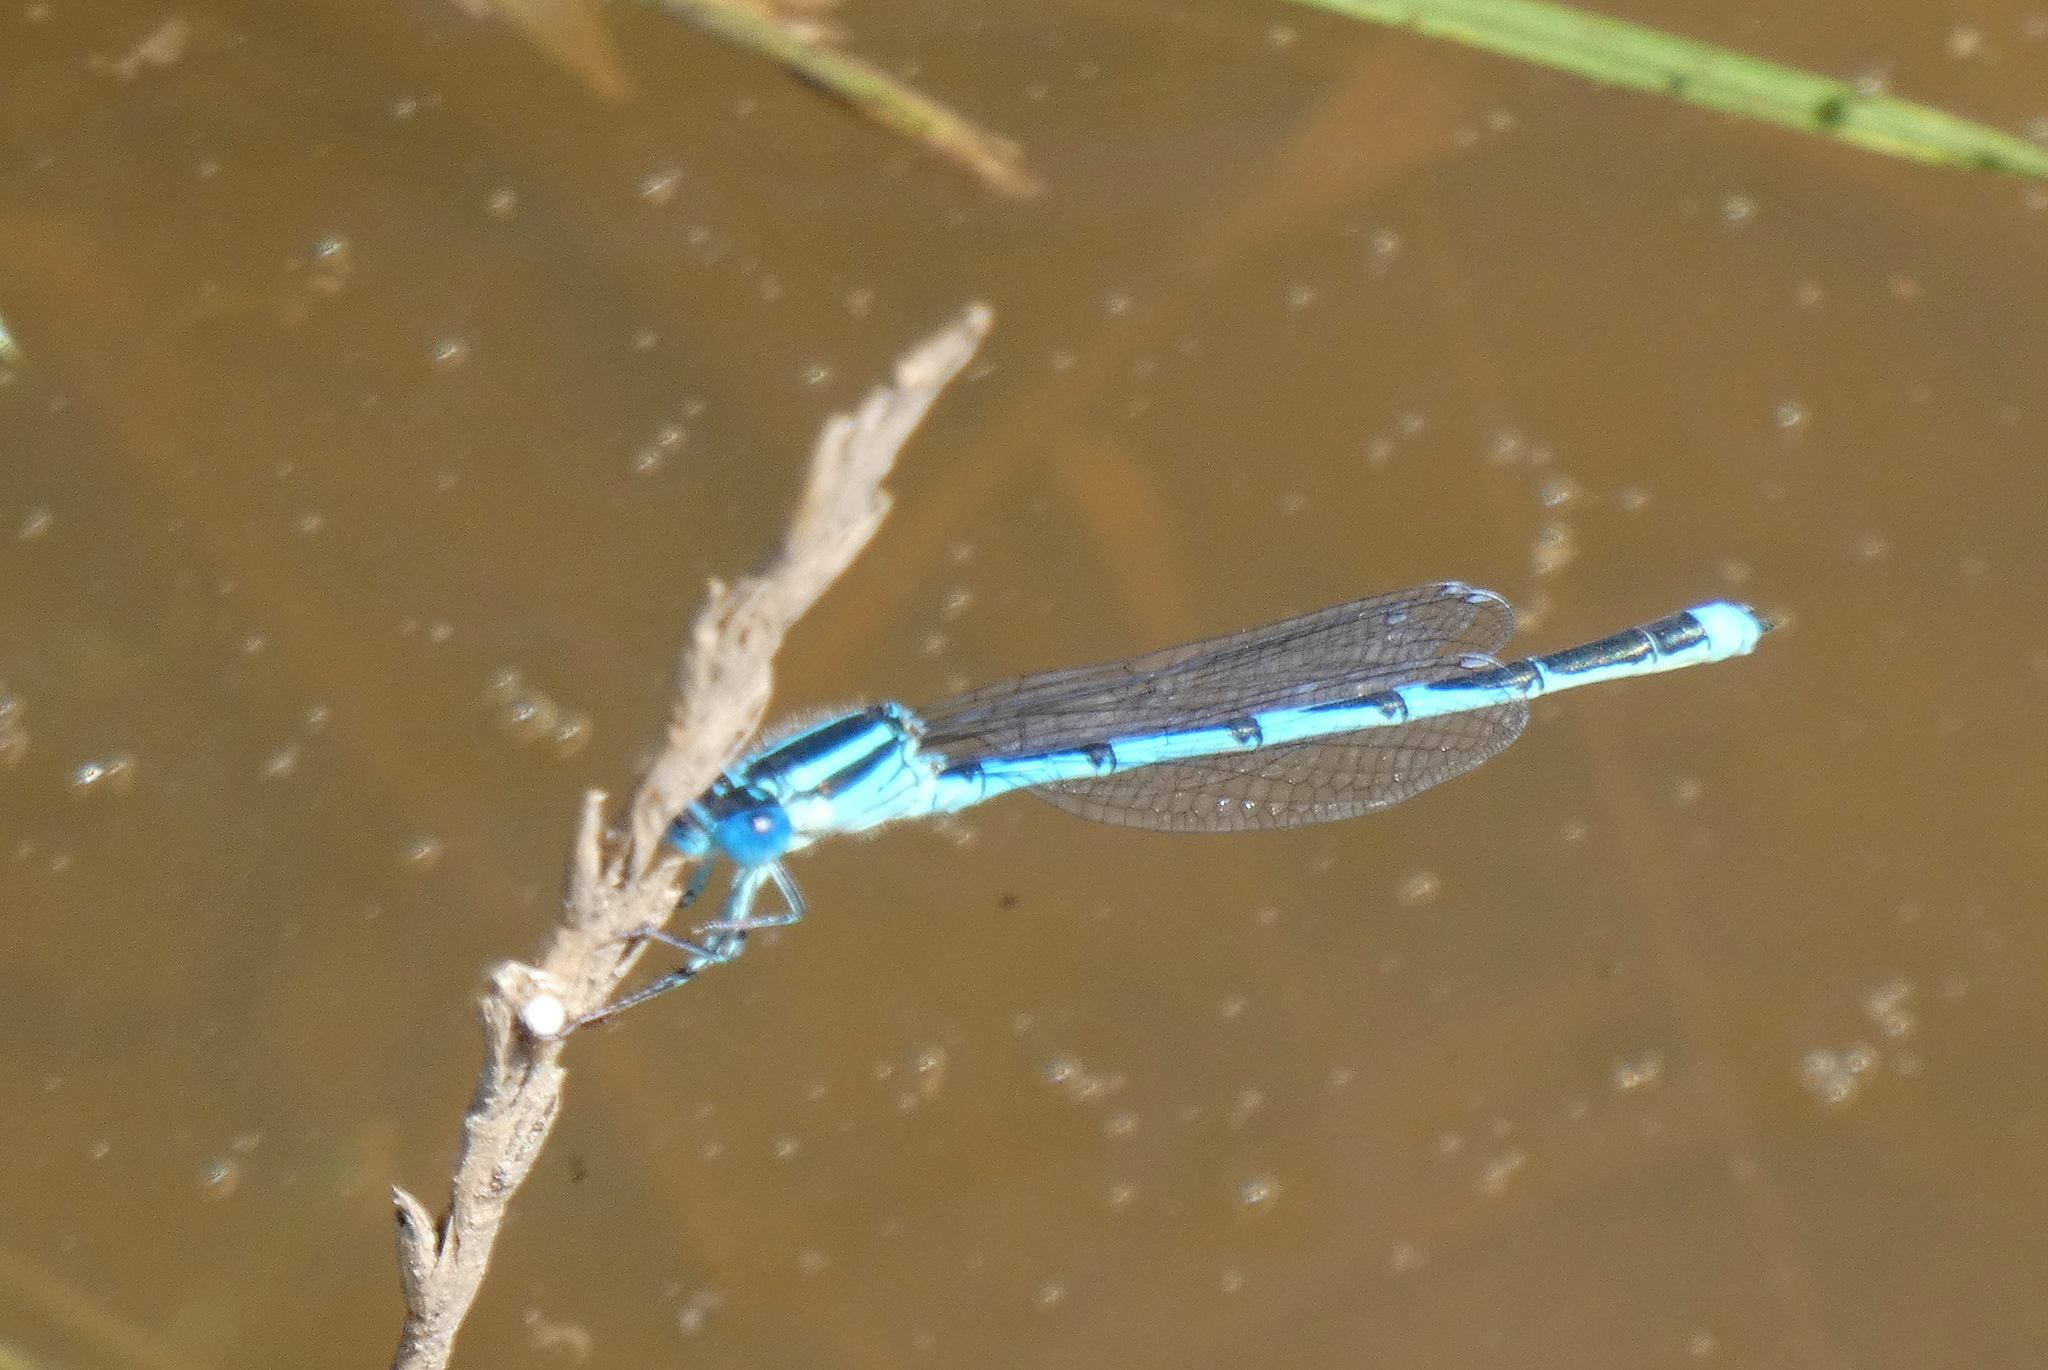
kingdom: Animalia
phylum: Arthropoda
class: Insecta
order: Odonata
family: Coenagrionidae
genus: Erythromma
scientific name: Erythromma lindenii
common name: Blue-eye
